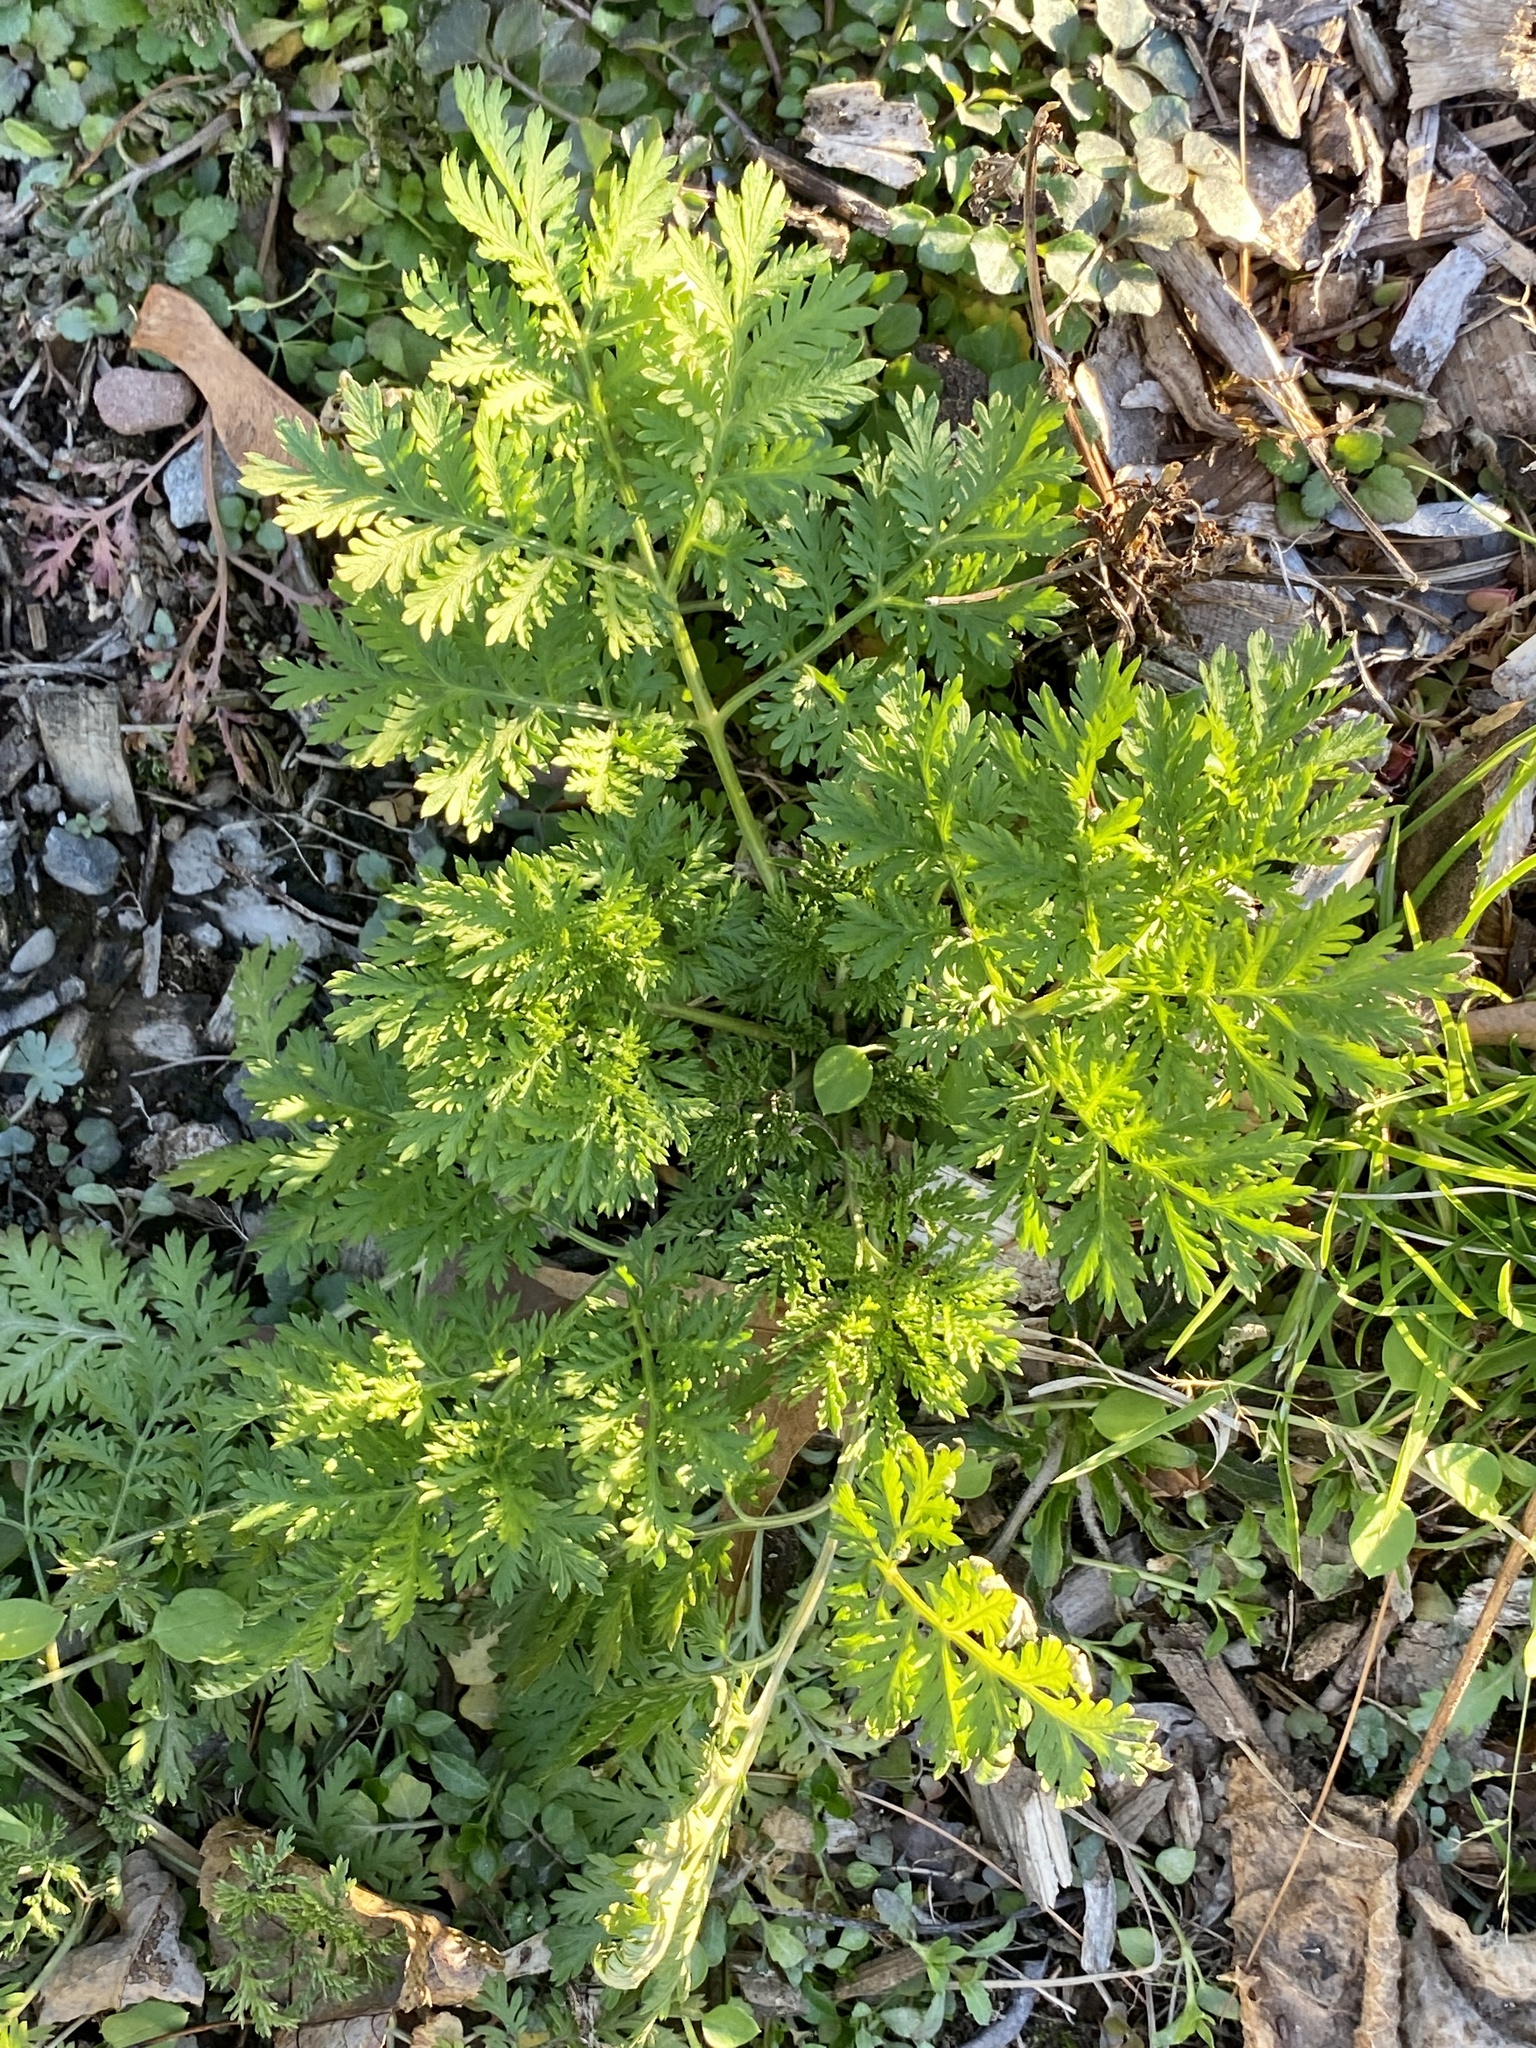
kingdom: Plantae
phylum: Tracheophyta
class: Magnoliopsida
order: Asterales
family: Asteraceae
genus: Artemisia
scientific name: Artemisia annua
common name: Sweet sagewort
